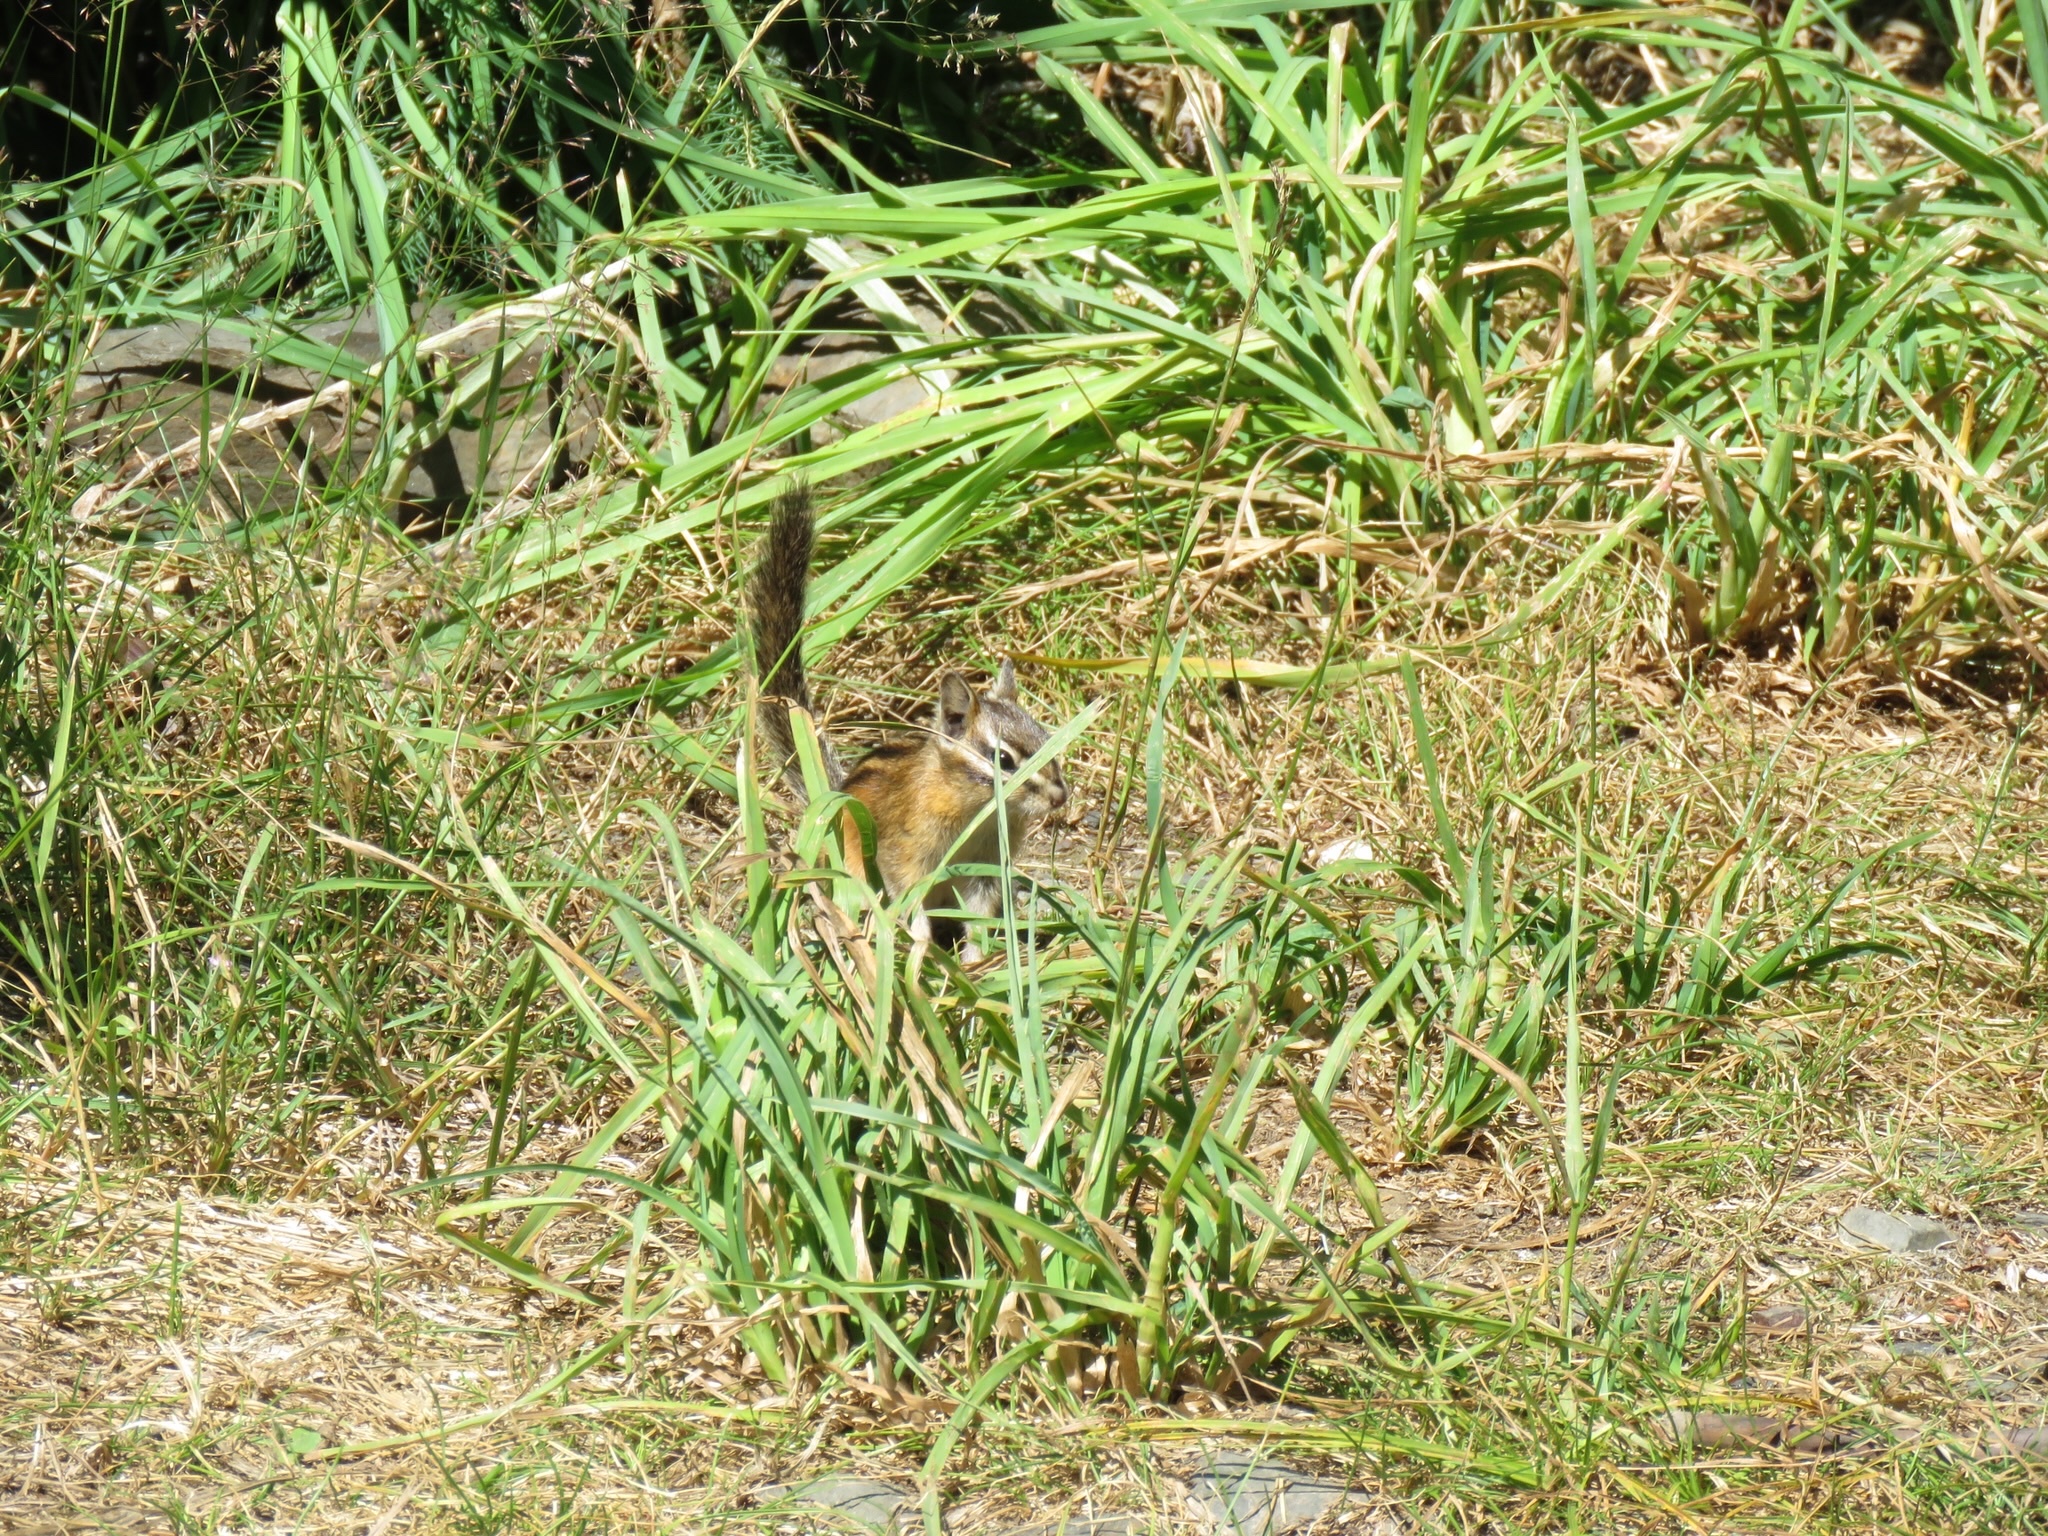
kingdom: Animalia
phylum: Chordata
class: Mammalia
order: Rodentia
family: Sciuridae
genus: Neotamias
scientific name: Neotamias
